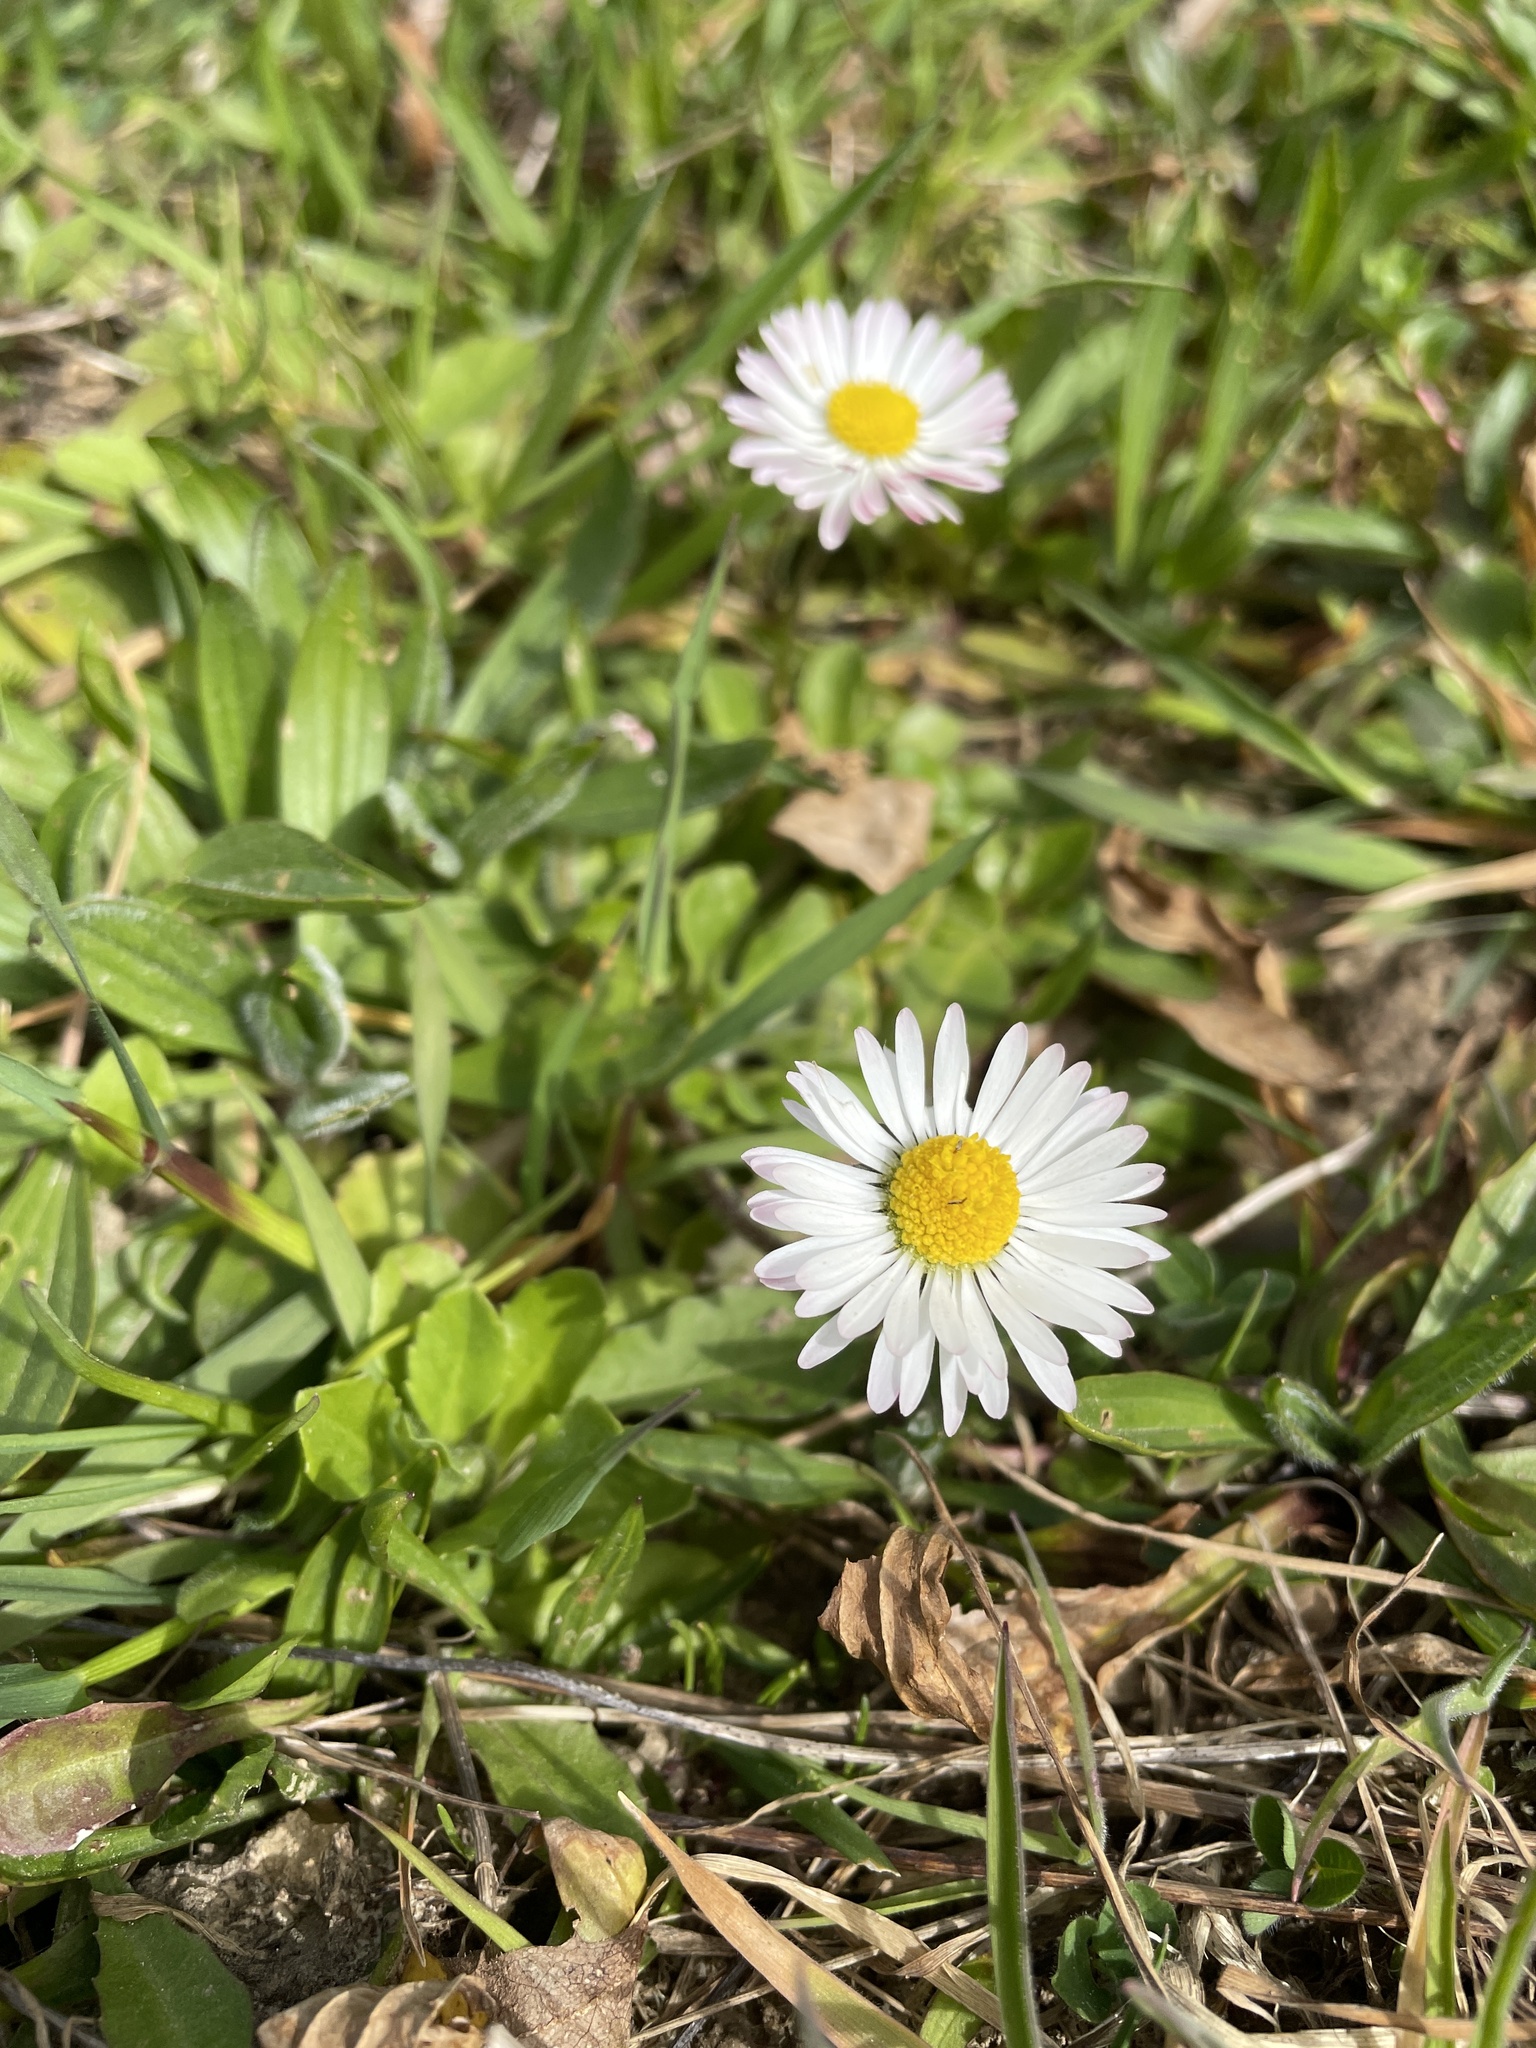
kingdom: Plantae
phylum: Tracheophyta
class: Magnoliopsida
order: Asterales
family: Asteraceae
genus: Bellis
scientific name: Bellis perennis
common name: Lawndaisy
